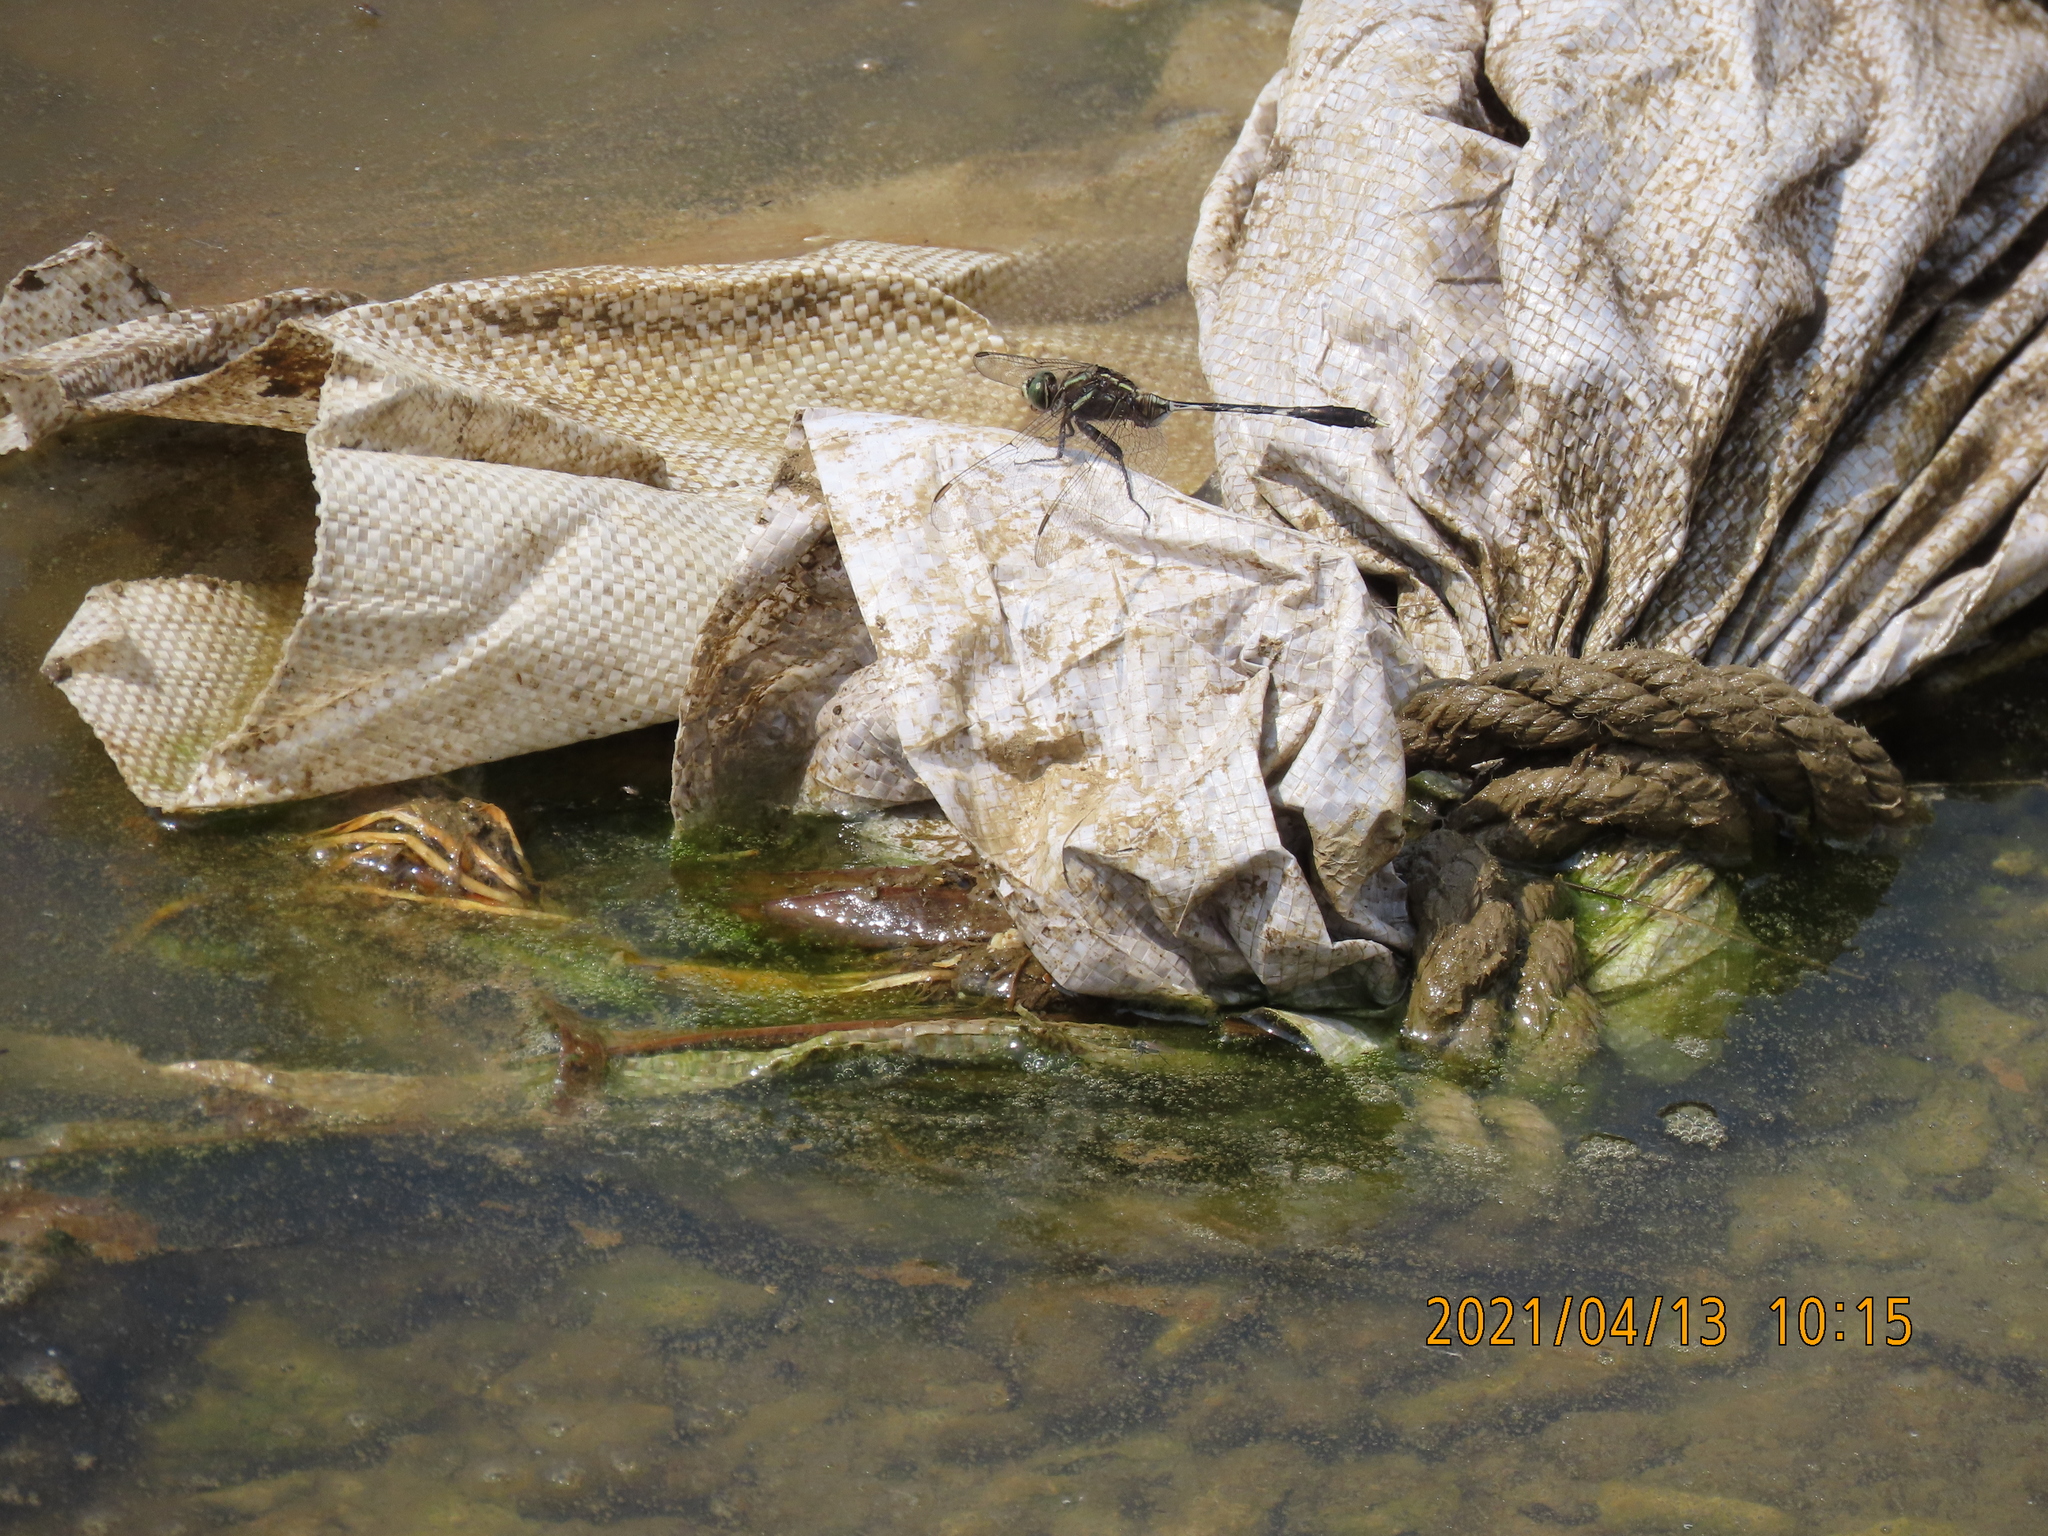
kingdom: Animalia
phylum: Arthropoda
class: Insecta
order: Odonata
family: Libellulidae
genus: Orthetrum
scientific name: Orthetrum sabina
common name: Slender skimmer
